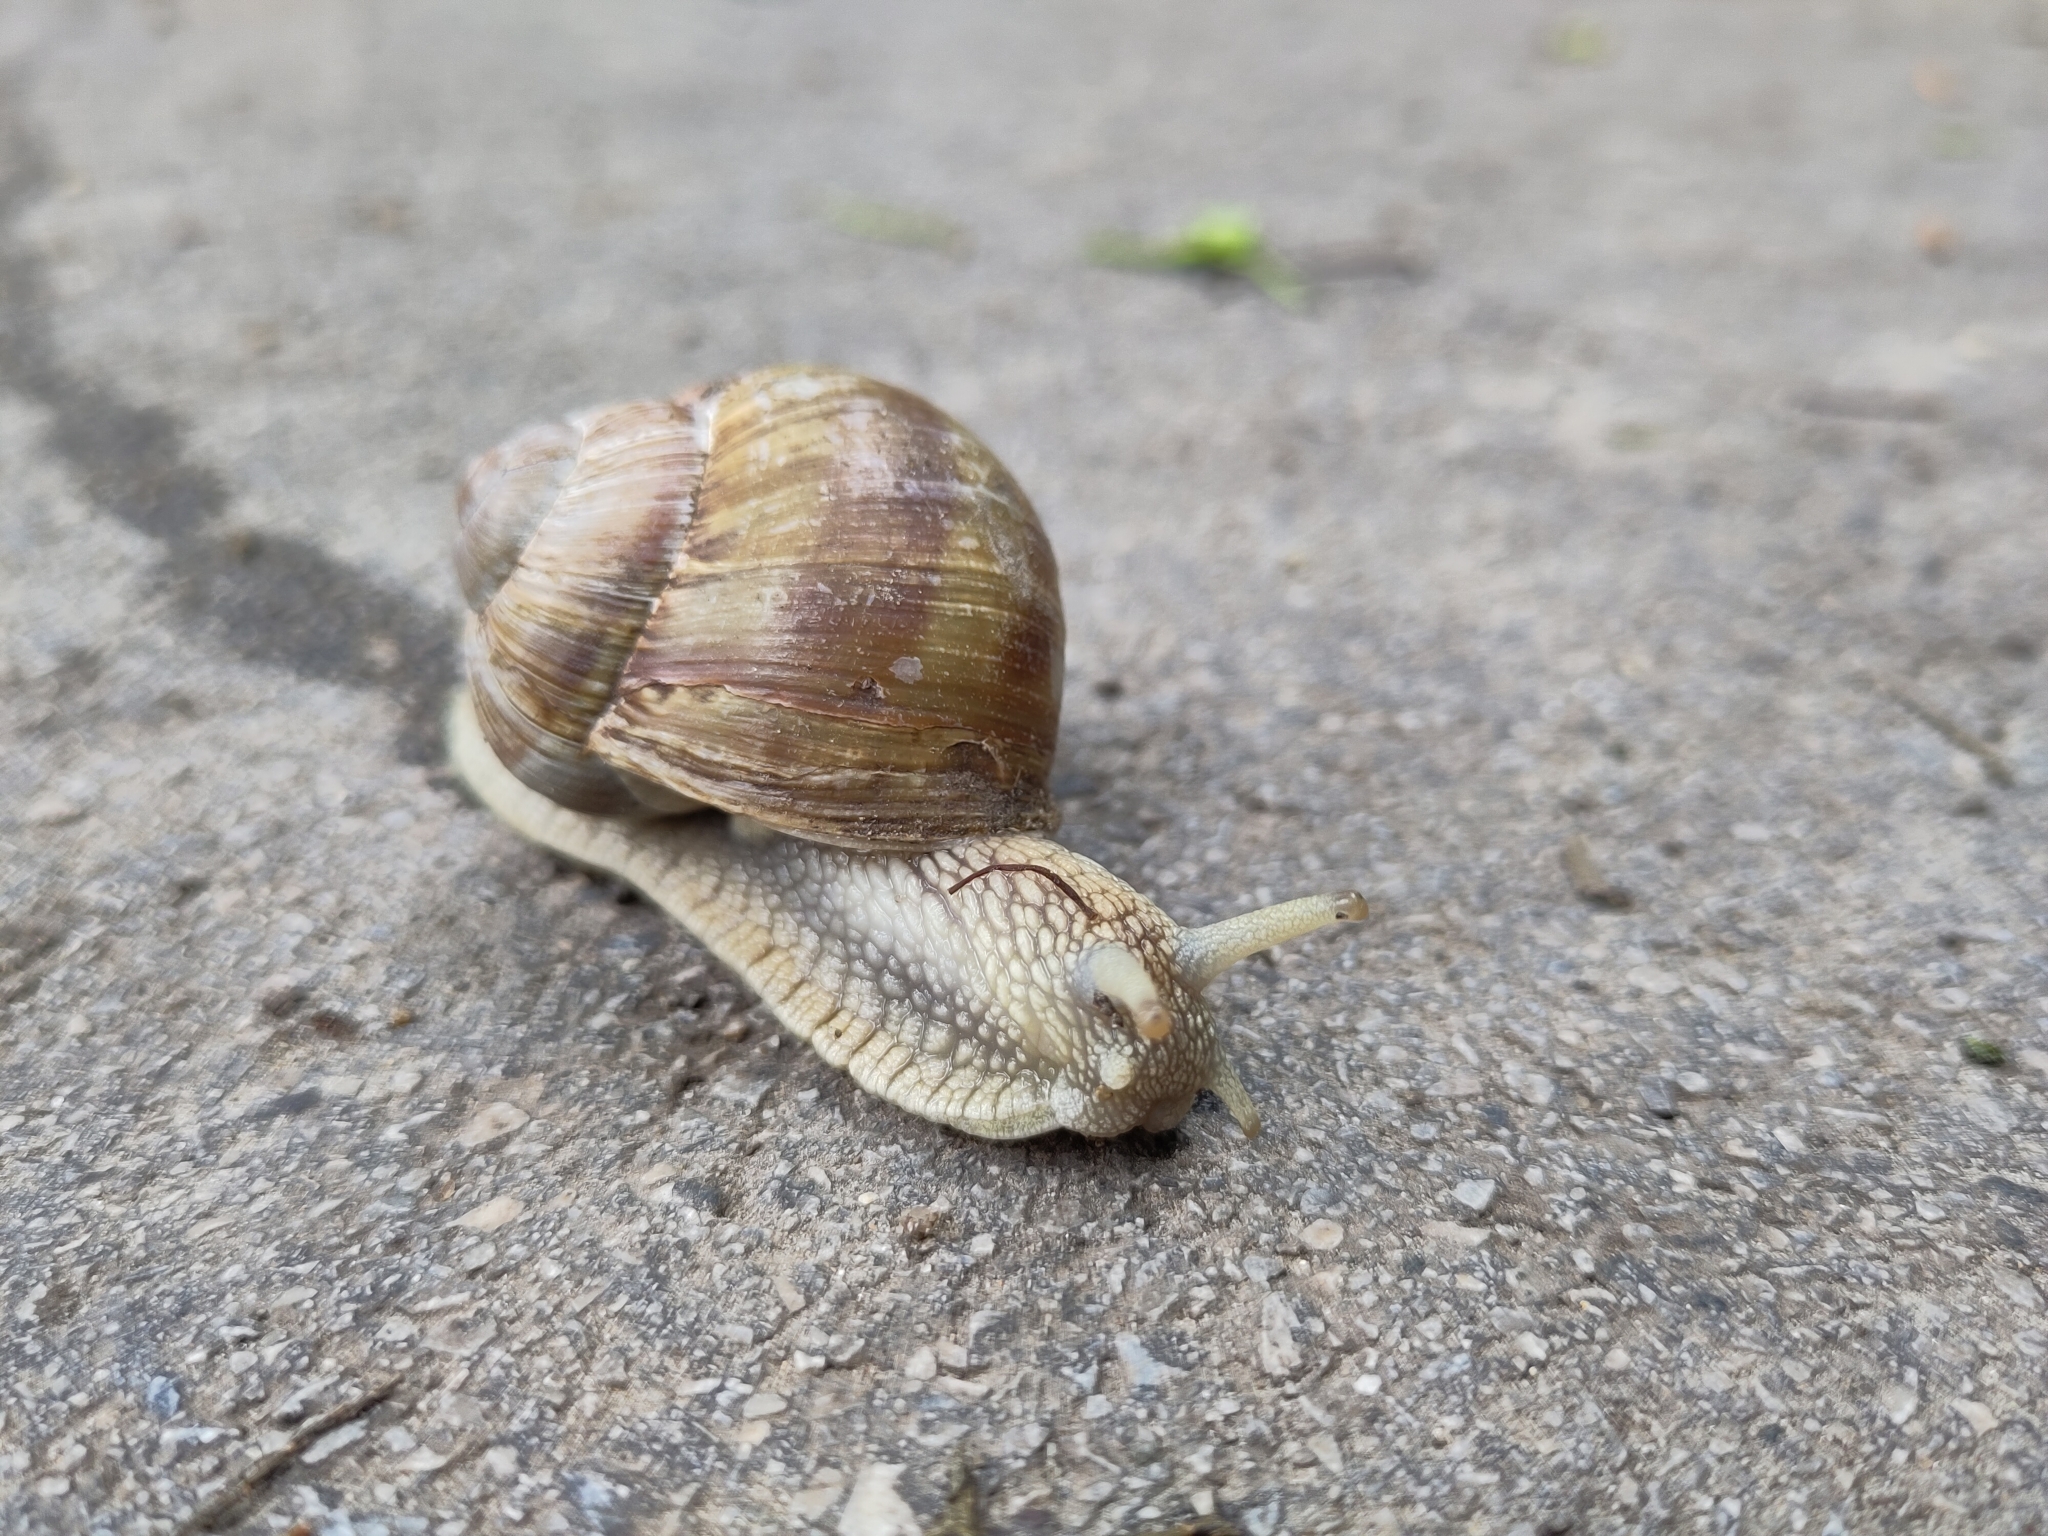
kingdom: Animalia
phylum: Mollusca
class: Gastropoda
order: Stylommatophora
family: Helicidae
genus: Helix
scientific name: Helix pomatia
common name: Roman snail
